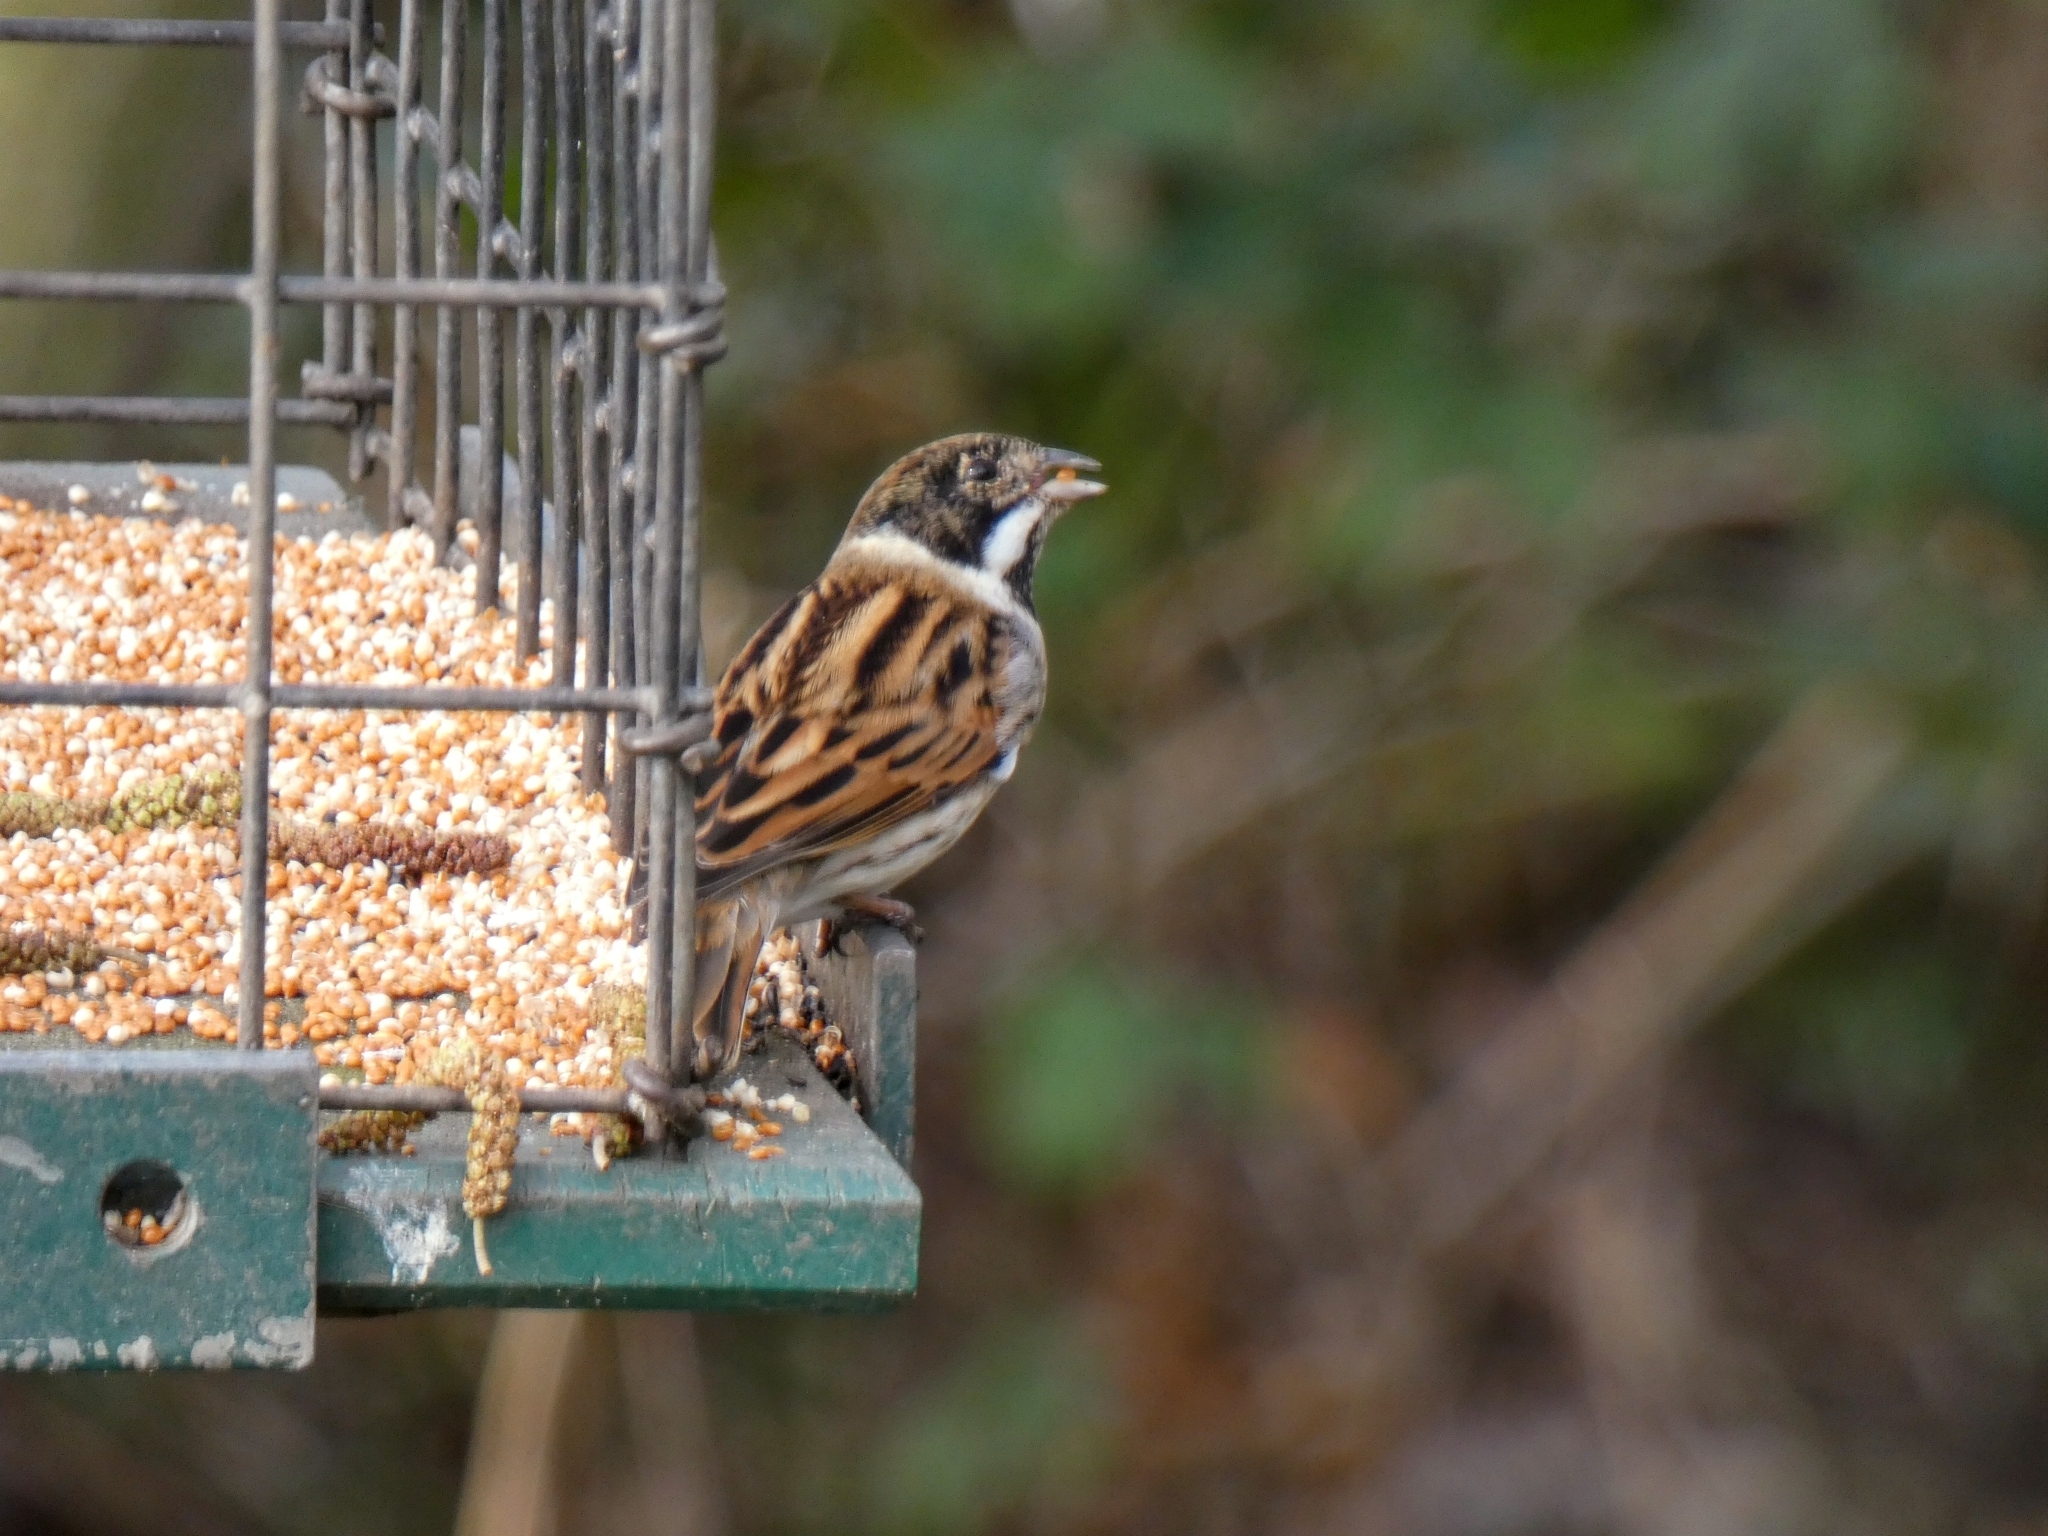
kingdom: Animalia
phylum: Chordata
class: Aves
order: Passeriformes
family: Emberizidae
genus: Emberiza
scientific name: Emberiza schoeniclus
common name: Reed bunting
